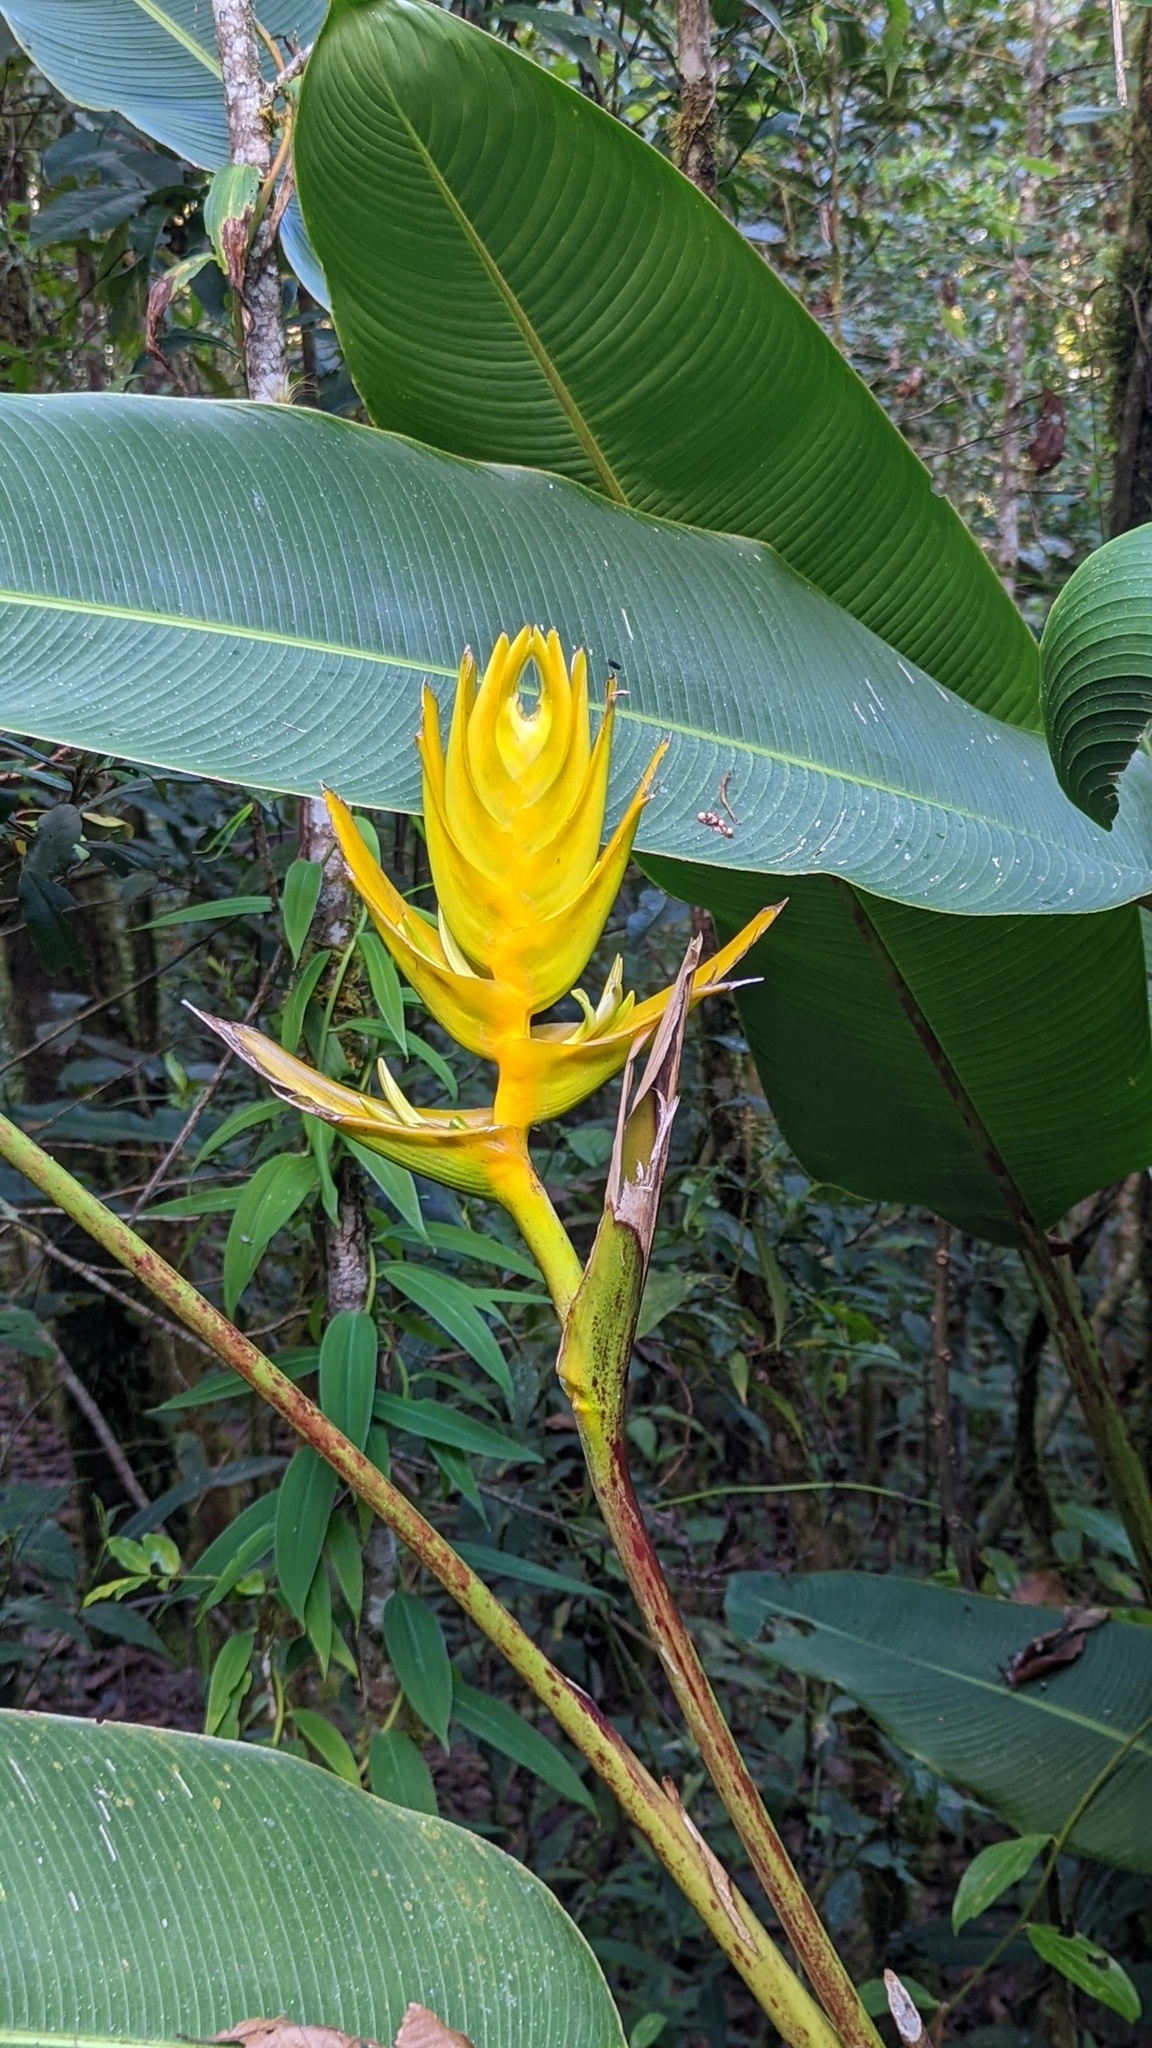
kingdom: Plantae
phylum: Tracheophyta
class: Liliopsida
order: Zingiberales
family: Heliconiaceae
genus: Heliconia
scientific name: Heliconia lankesteri
